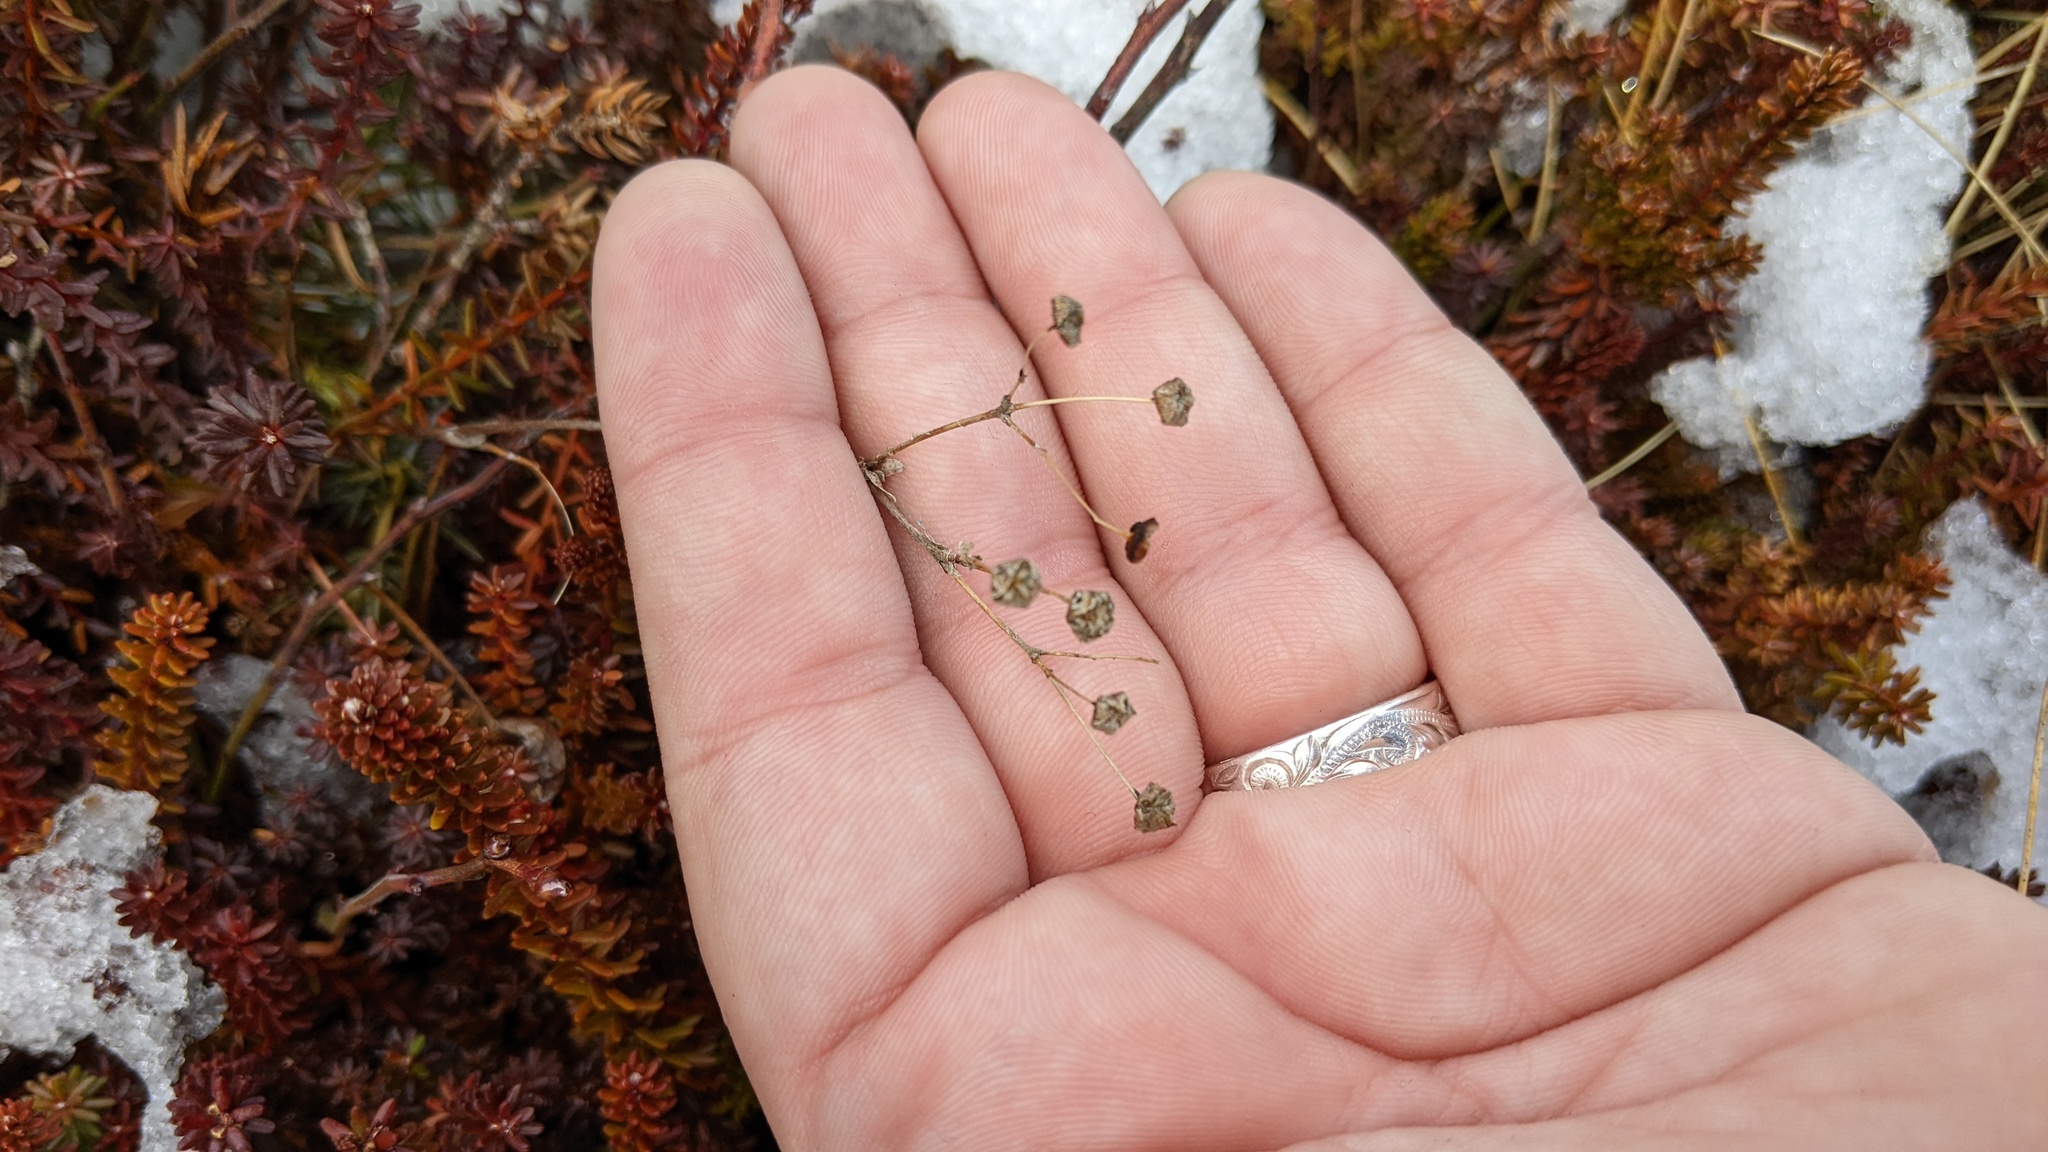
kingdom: Plantae
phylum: Tracheophyta
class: Magnoliopsida
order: Rosales
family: Rosaceae
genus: Sibbaldia
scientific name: Sibbaldia tridentata
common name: Three-toothed cinquefoil
